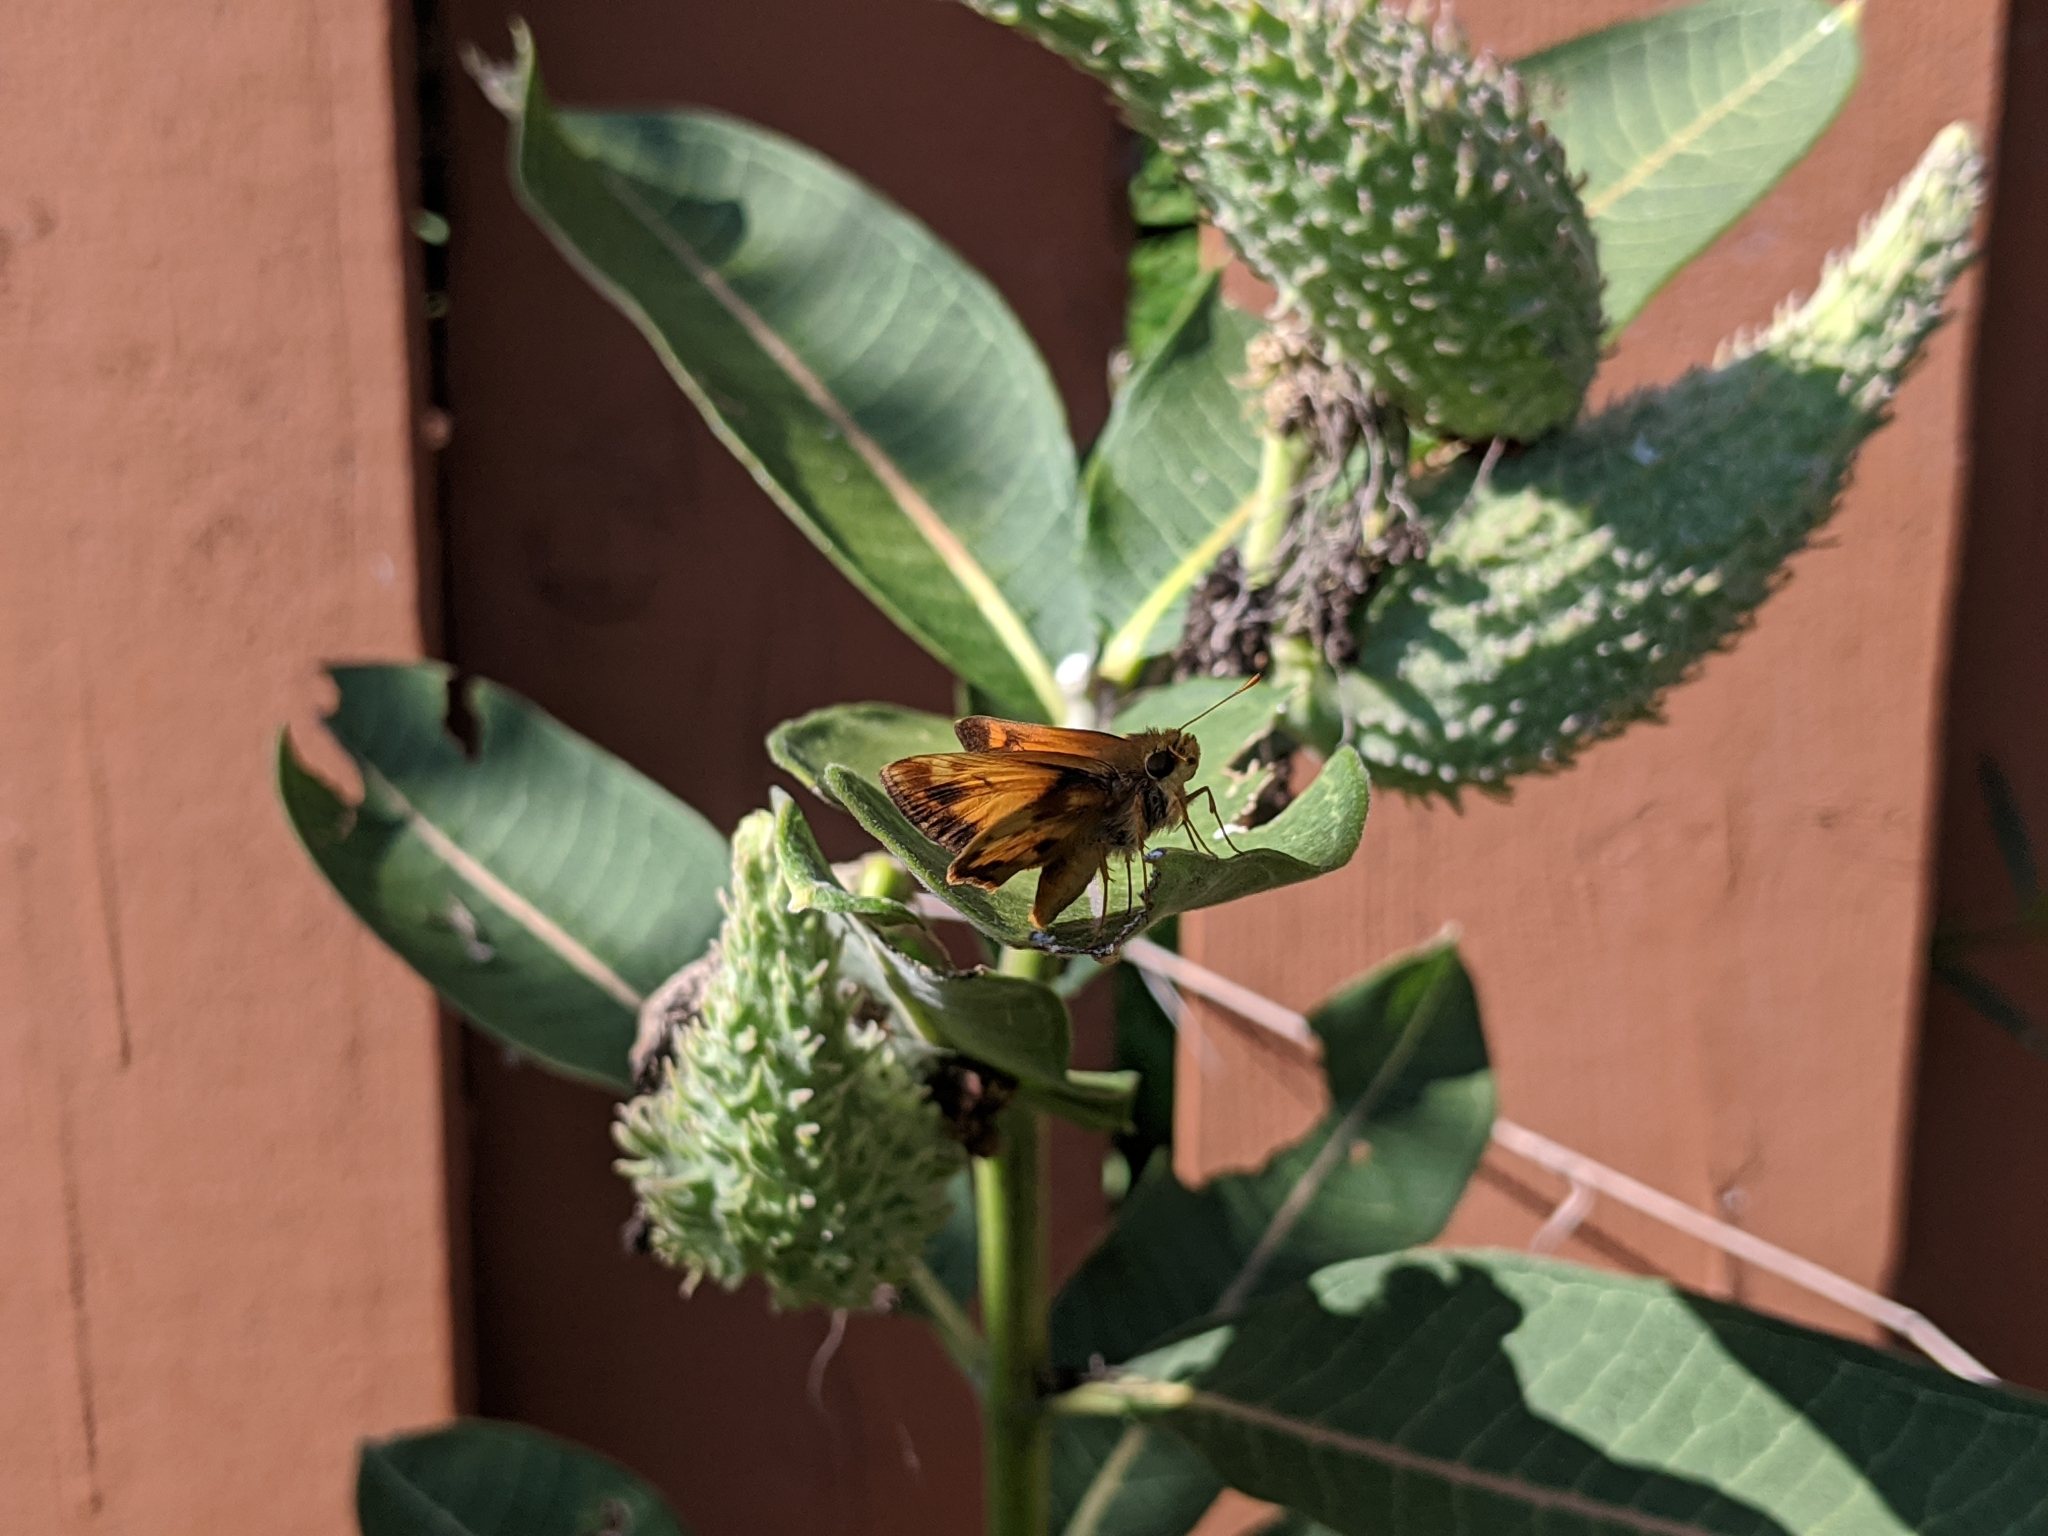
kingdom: Animalia
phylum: Arthropoda
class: Insecta
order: Lepidoptera
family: Hesperiidae
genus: Lon
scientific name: Lon zabulon
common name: Zabulon skipper
